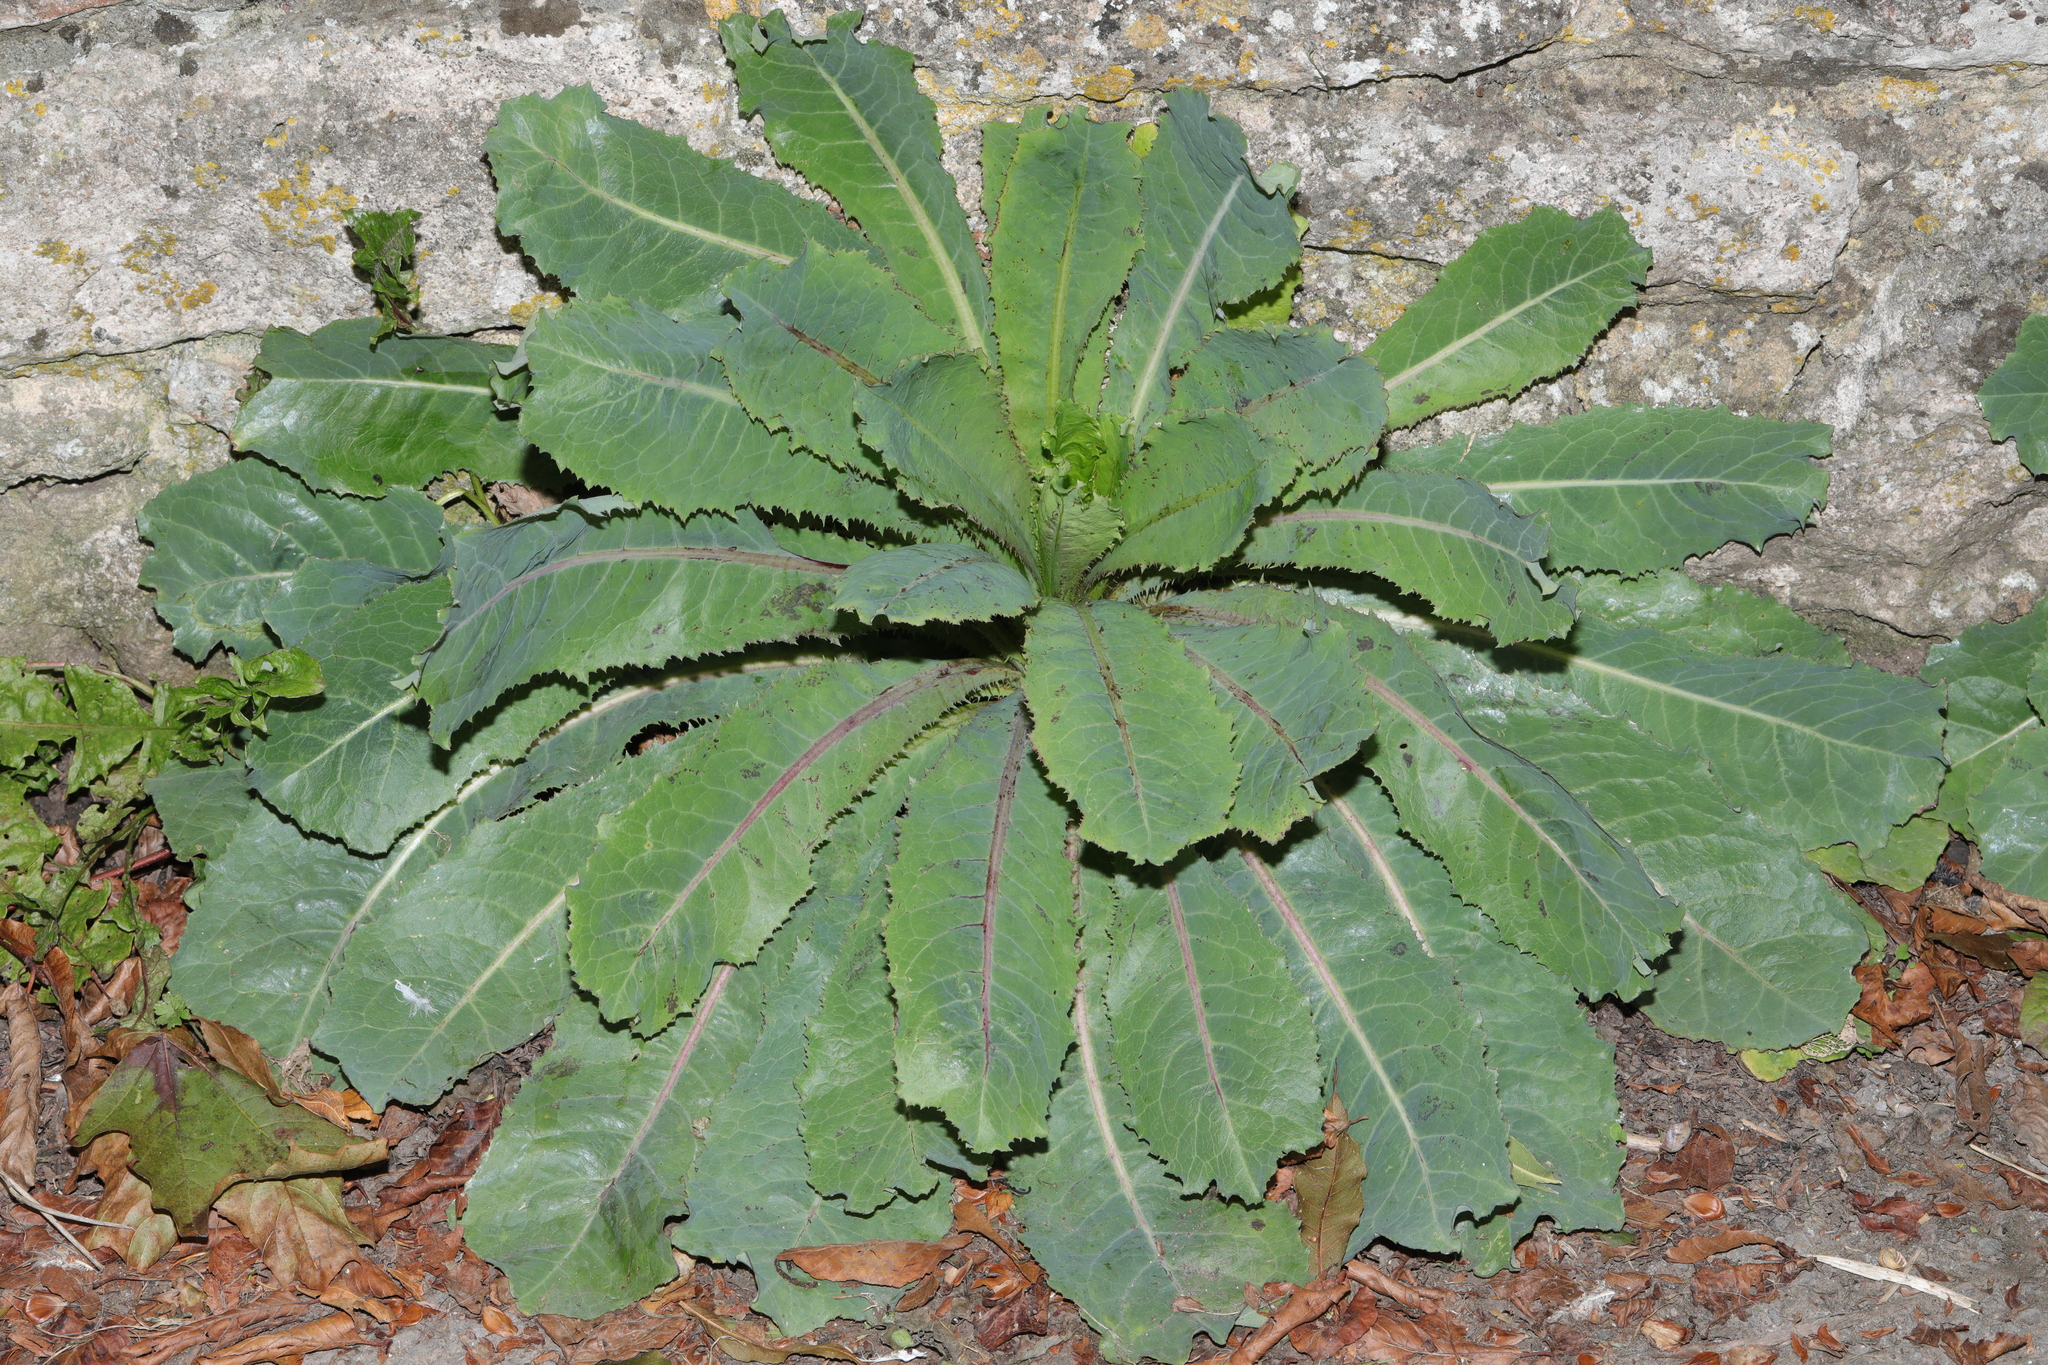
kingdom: Plantae
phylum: Tracheophyta
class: Magnoliopsida
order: Asterales
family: Asteraceae
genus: Lactuca
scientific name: Lactuca virosa
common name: Great lettuce
